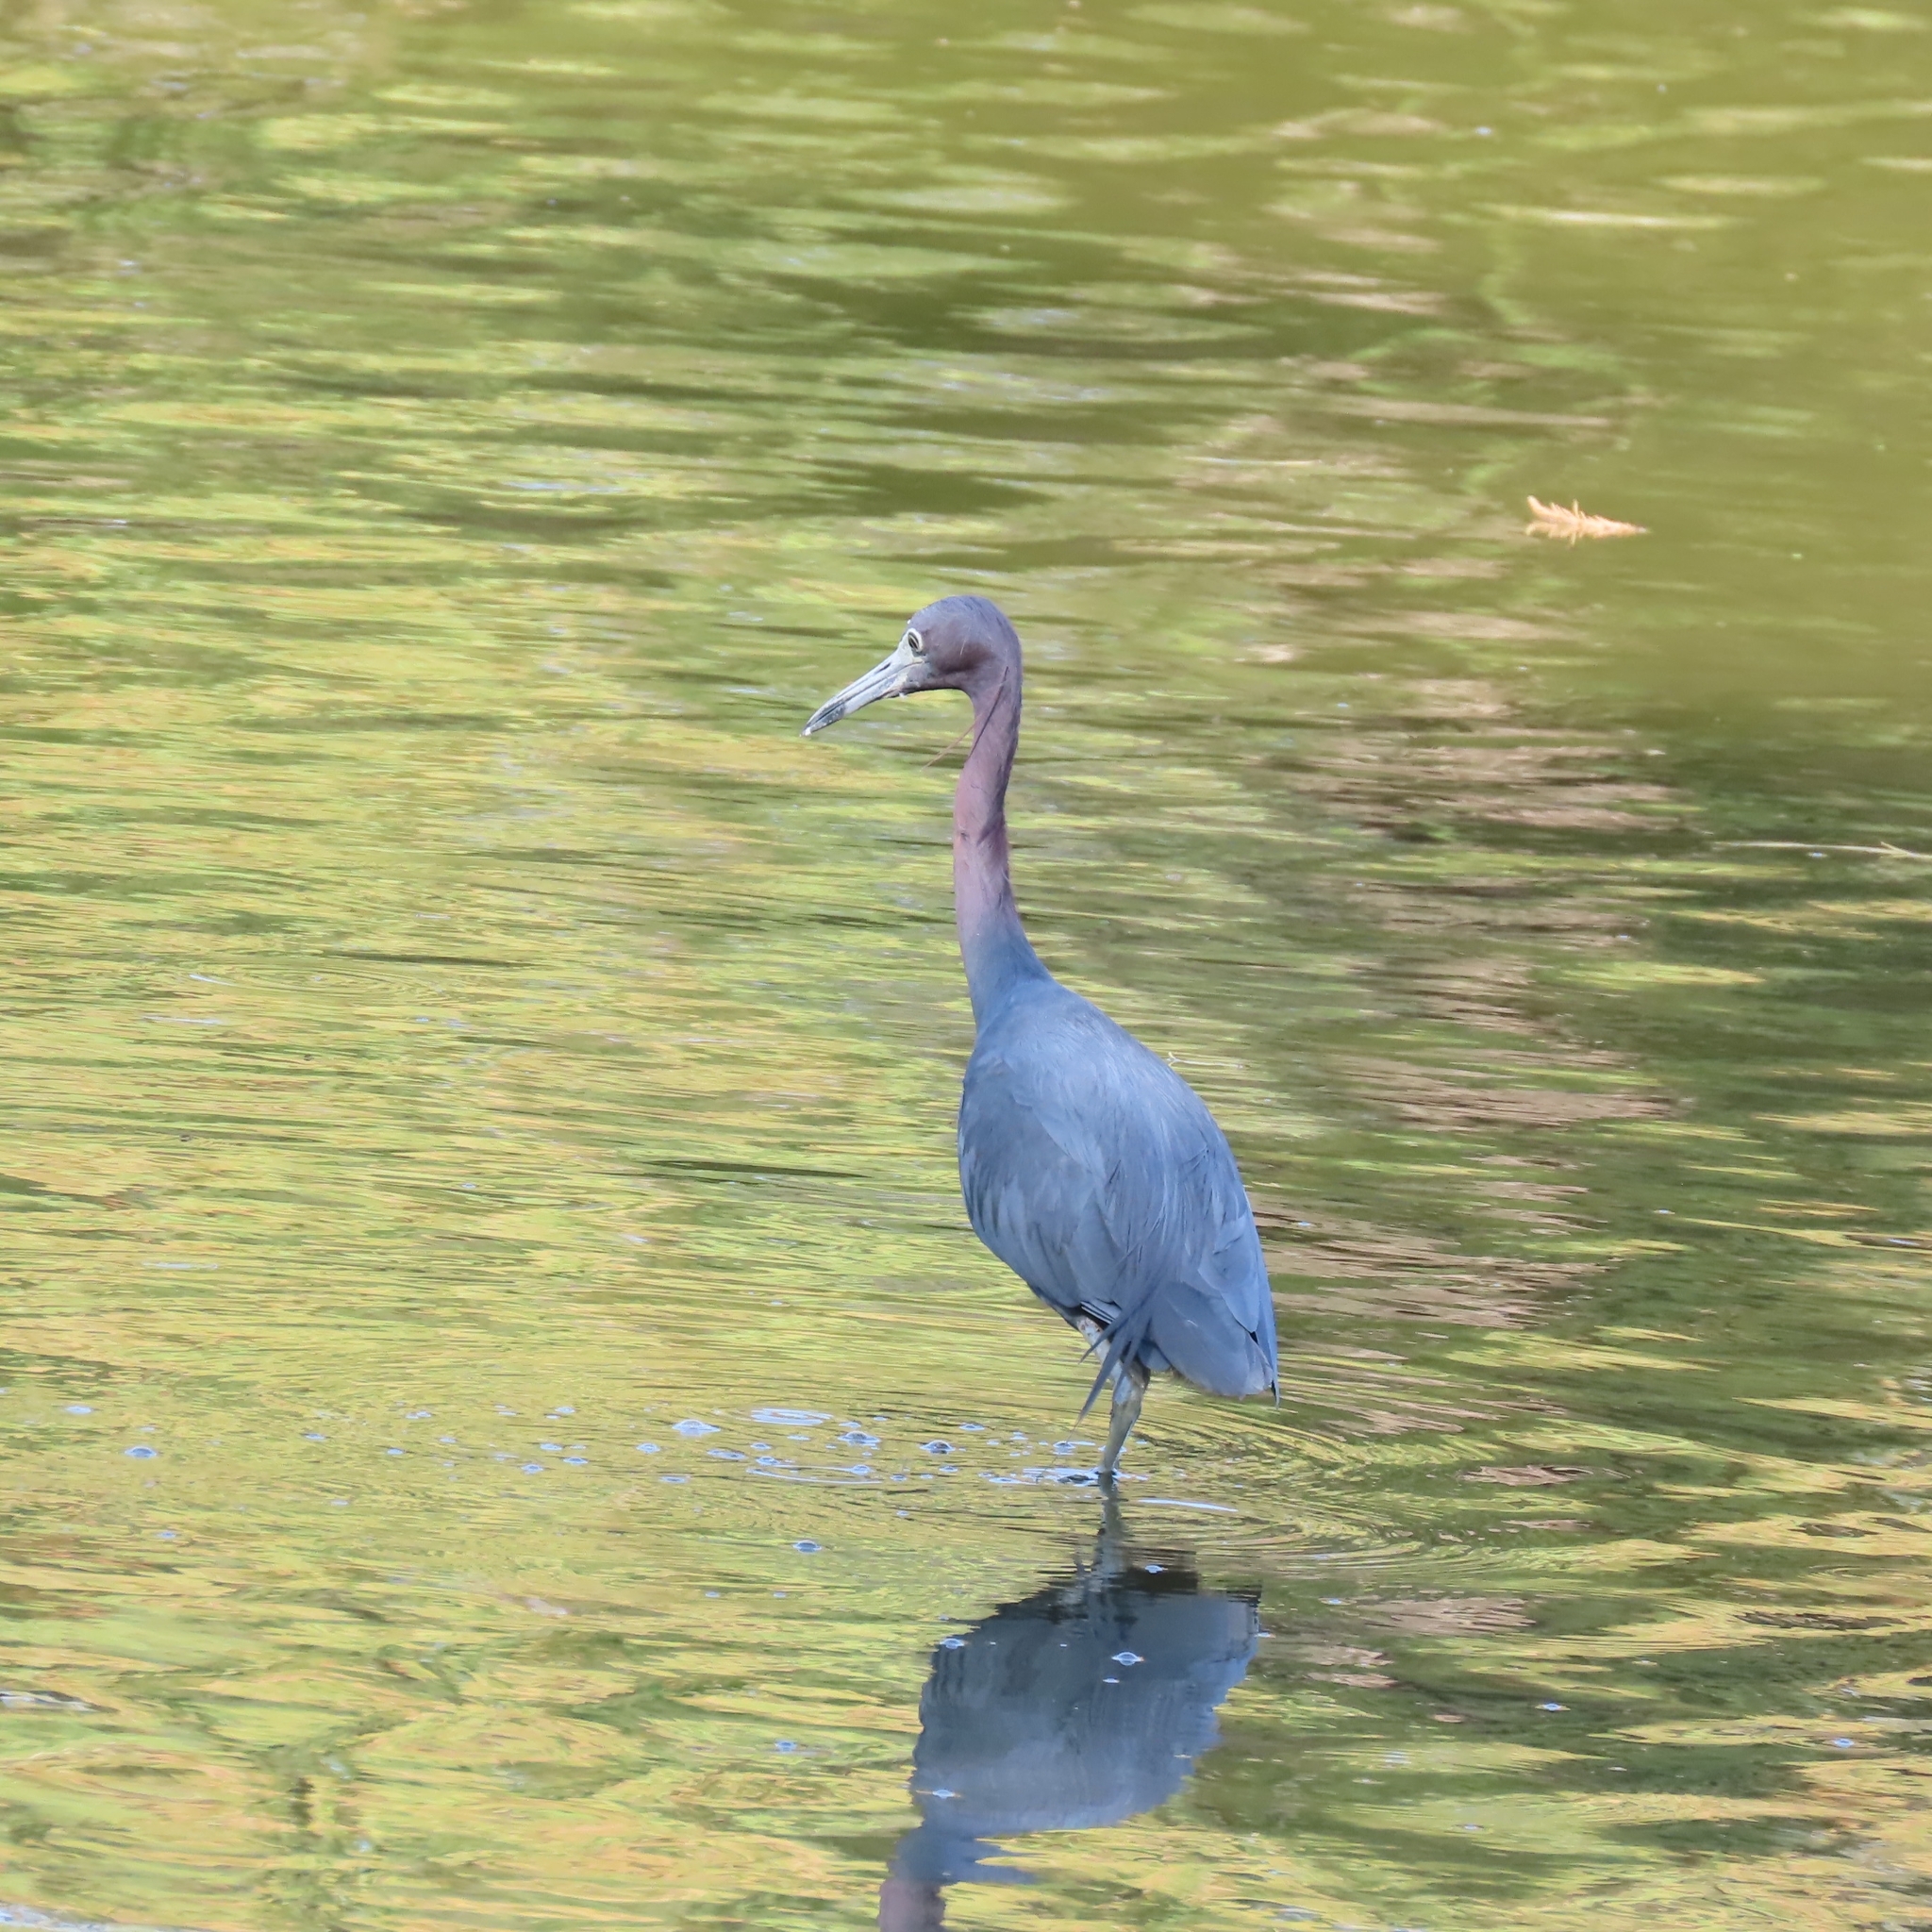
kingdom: Animalia
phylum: Chordata
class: Aves
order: Pelecaniformes
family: Ardeidae
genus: Egretta
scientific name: Egretta caerulea
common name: Little blue heron
